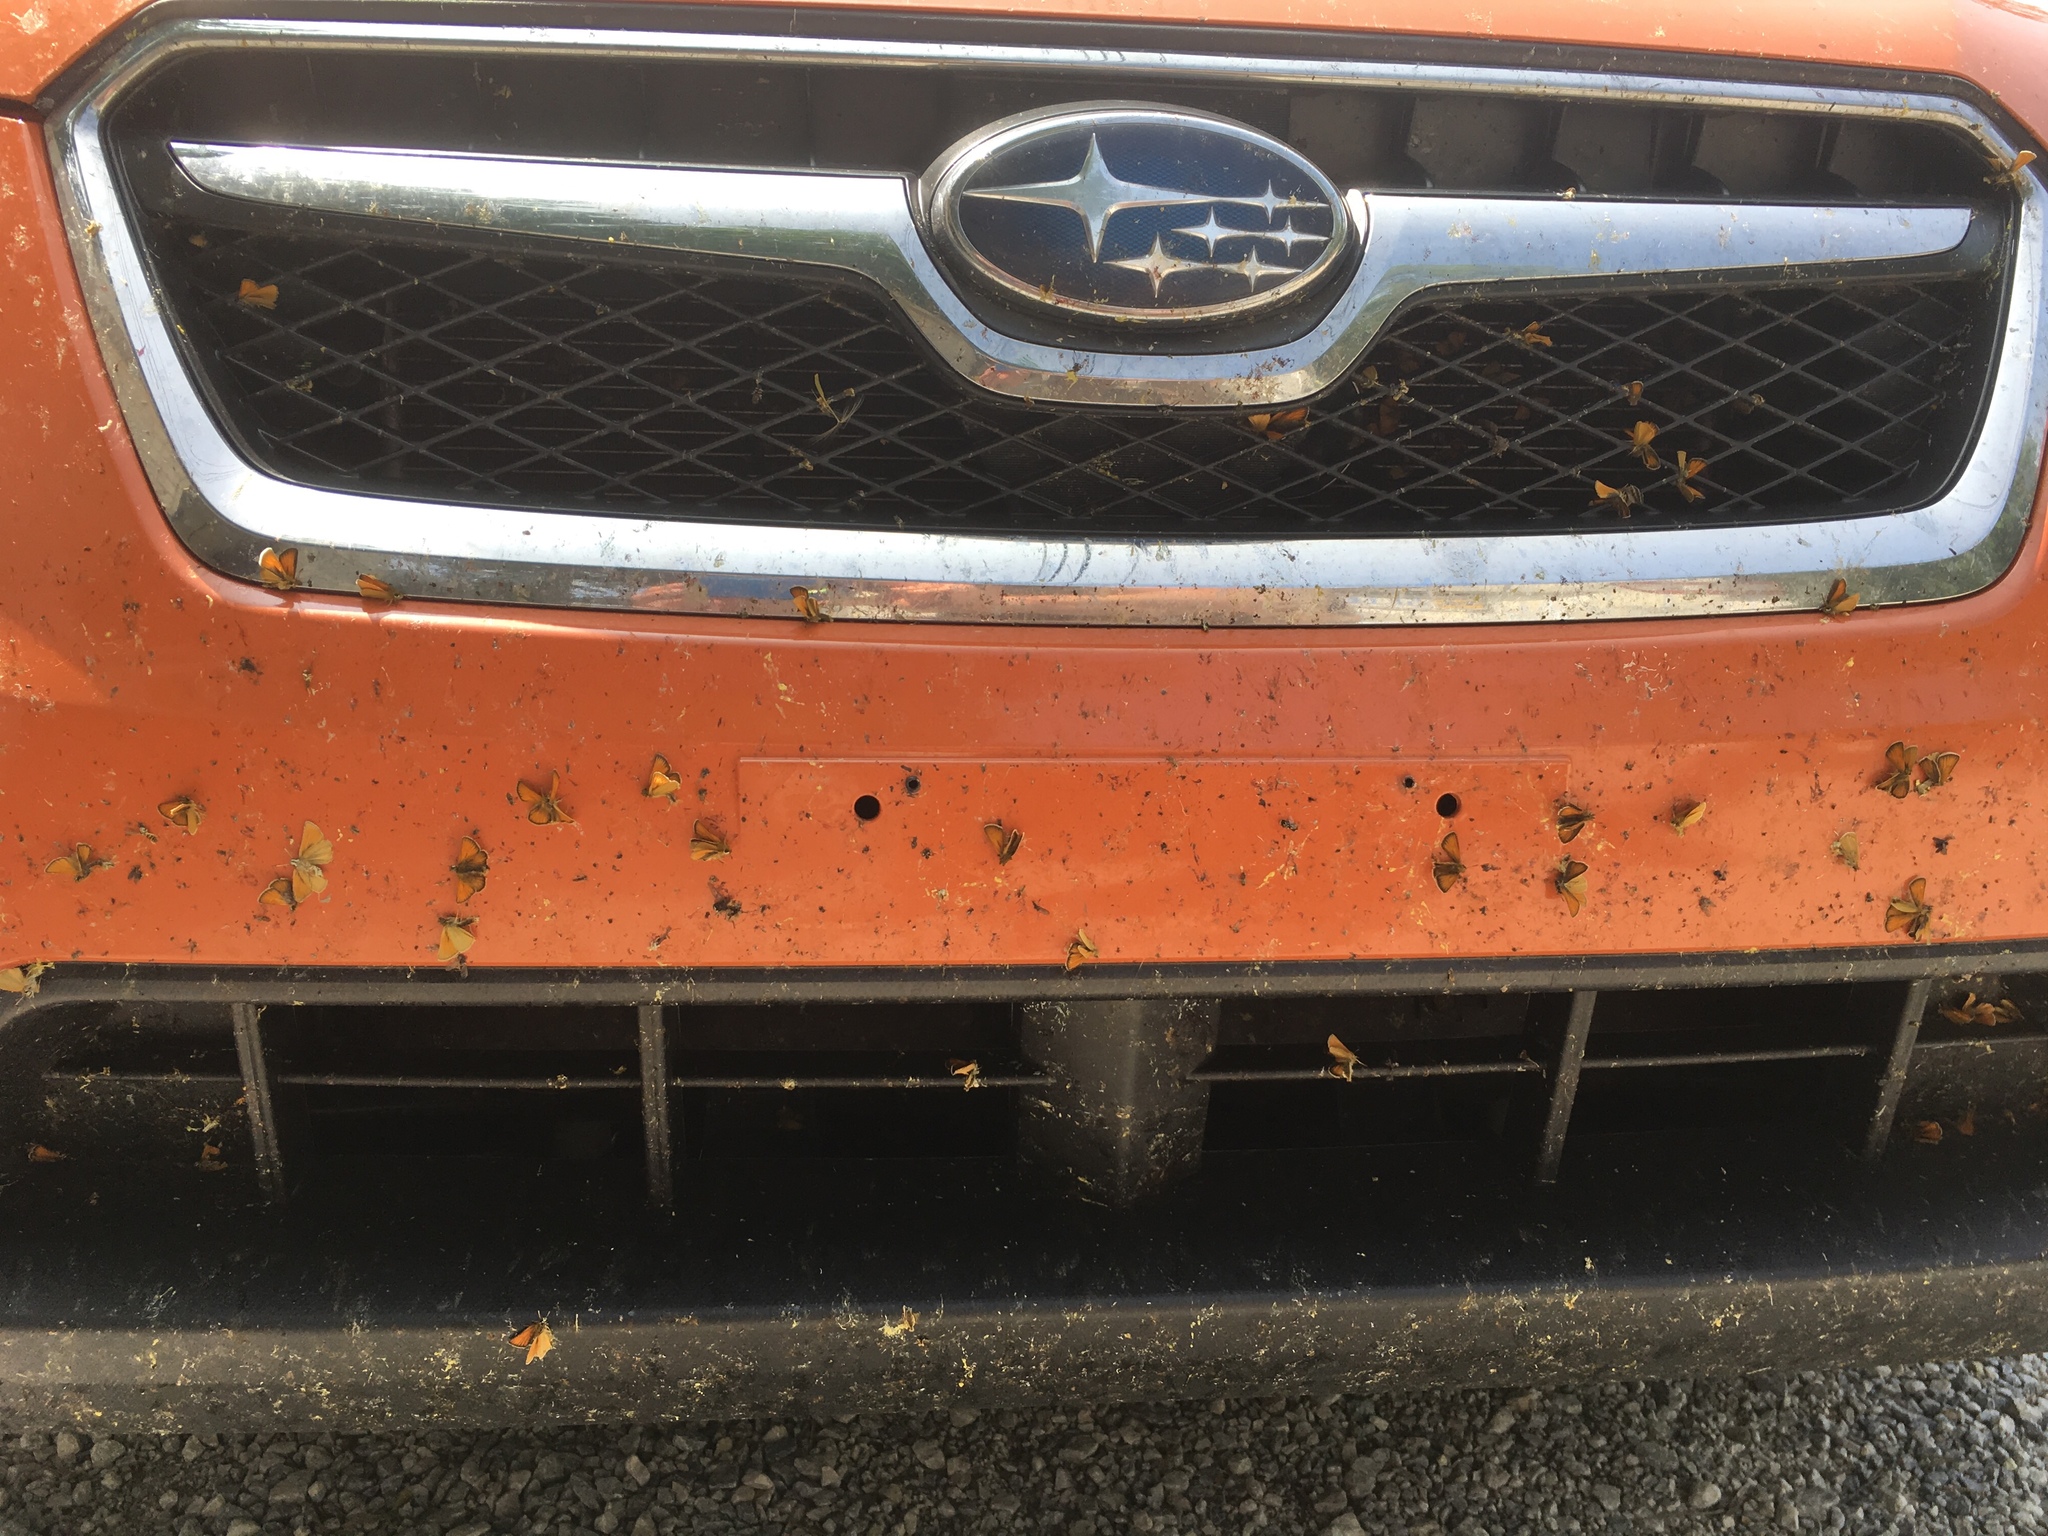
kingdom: Animalia
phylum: Arthropoda
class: Insecta
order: Lepidoptera
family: Hesperiidae
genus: Thymelicus
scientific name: Thymelicus lineola
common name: Essex skipper
